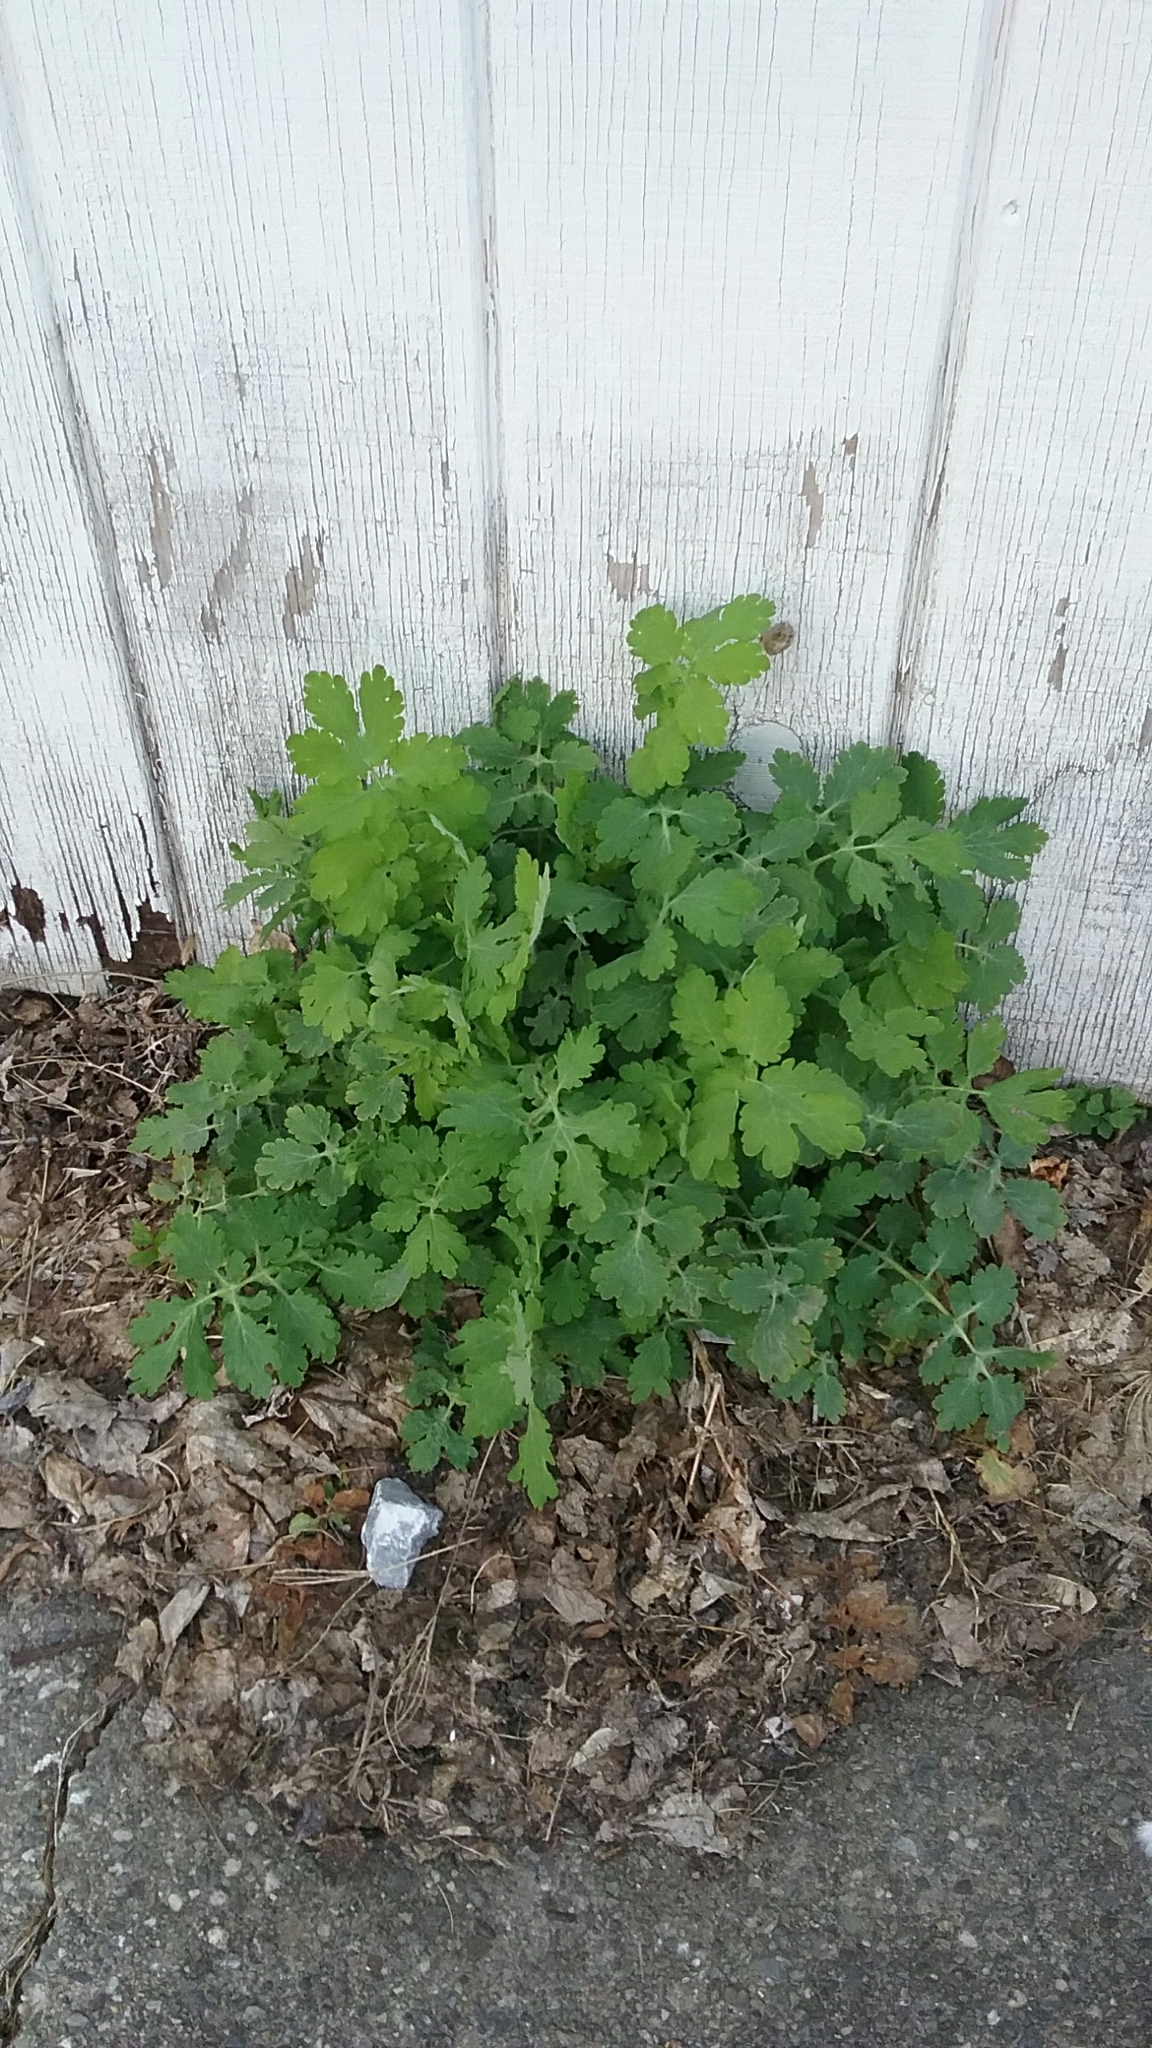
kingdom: Plantae
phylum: Tracheophyta
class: Magnoliopsida
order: Ranunculales
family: Papaveraceae
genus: Chelidonium
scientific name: Chelidonium majus
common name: Greater celandine
